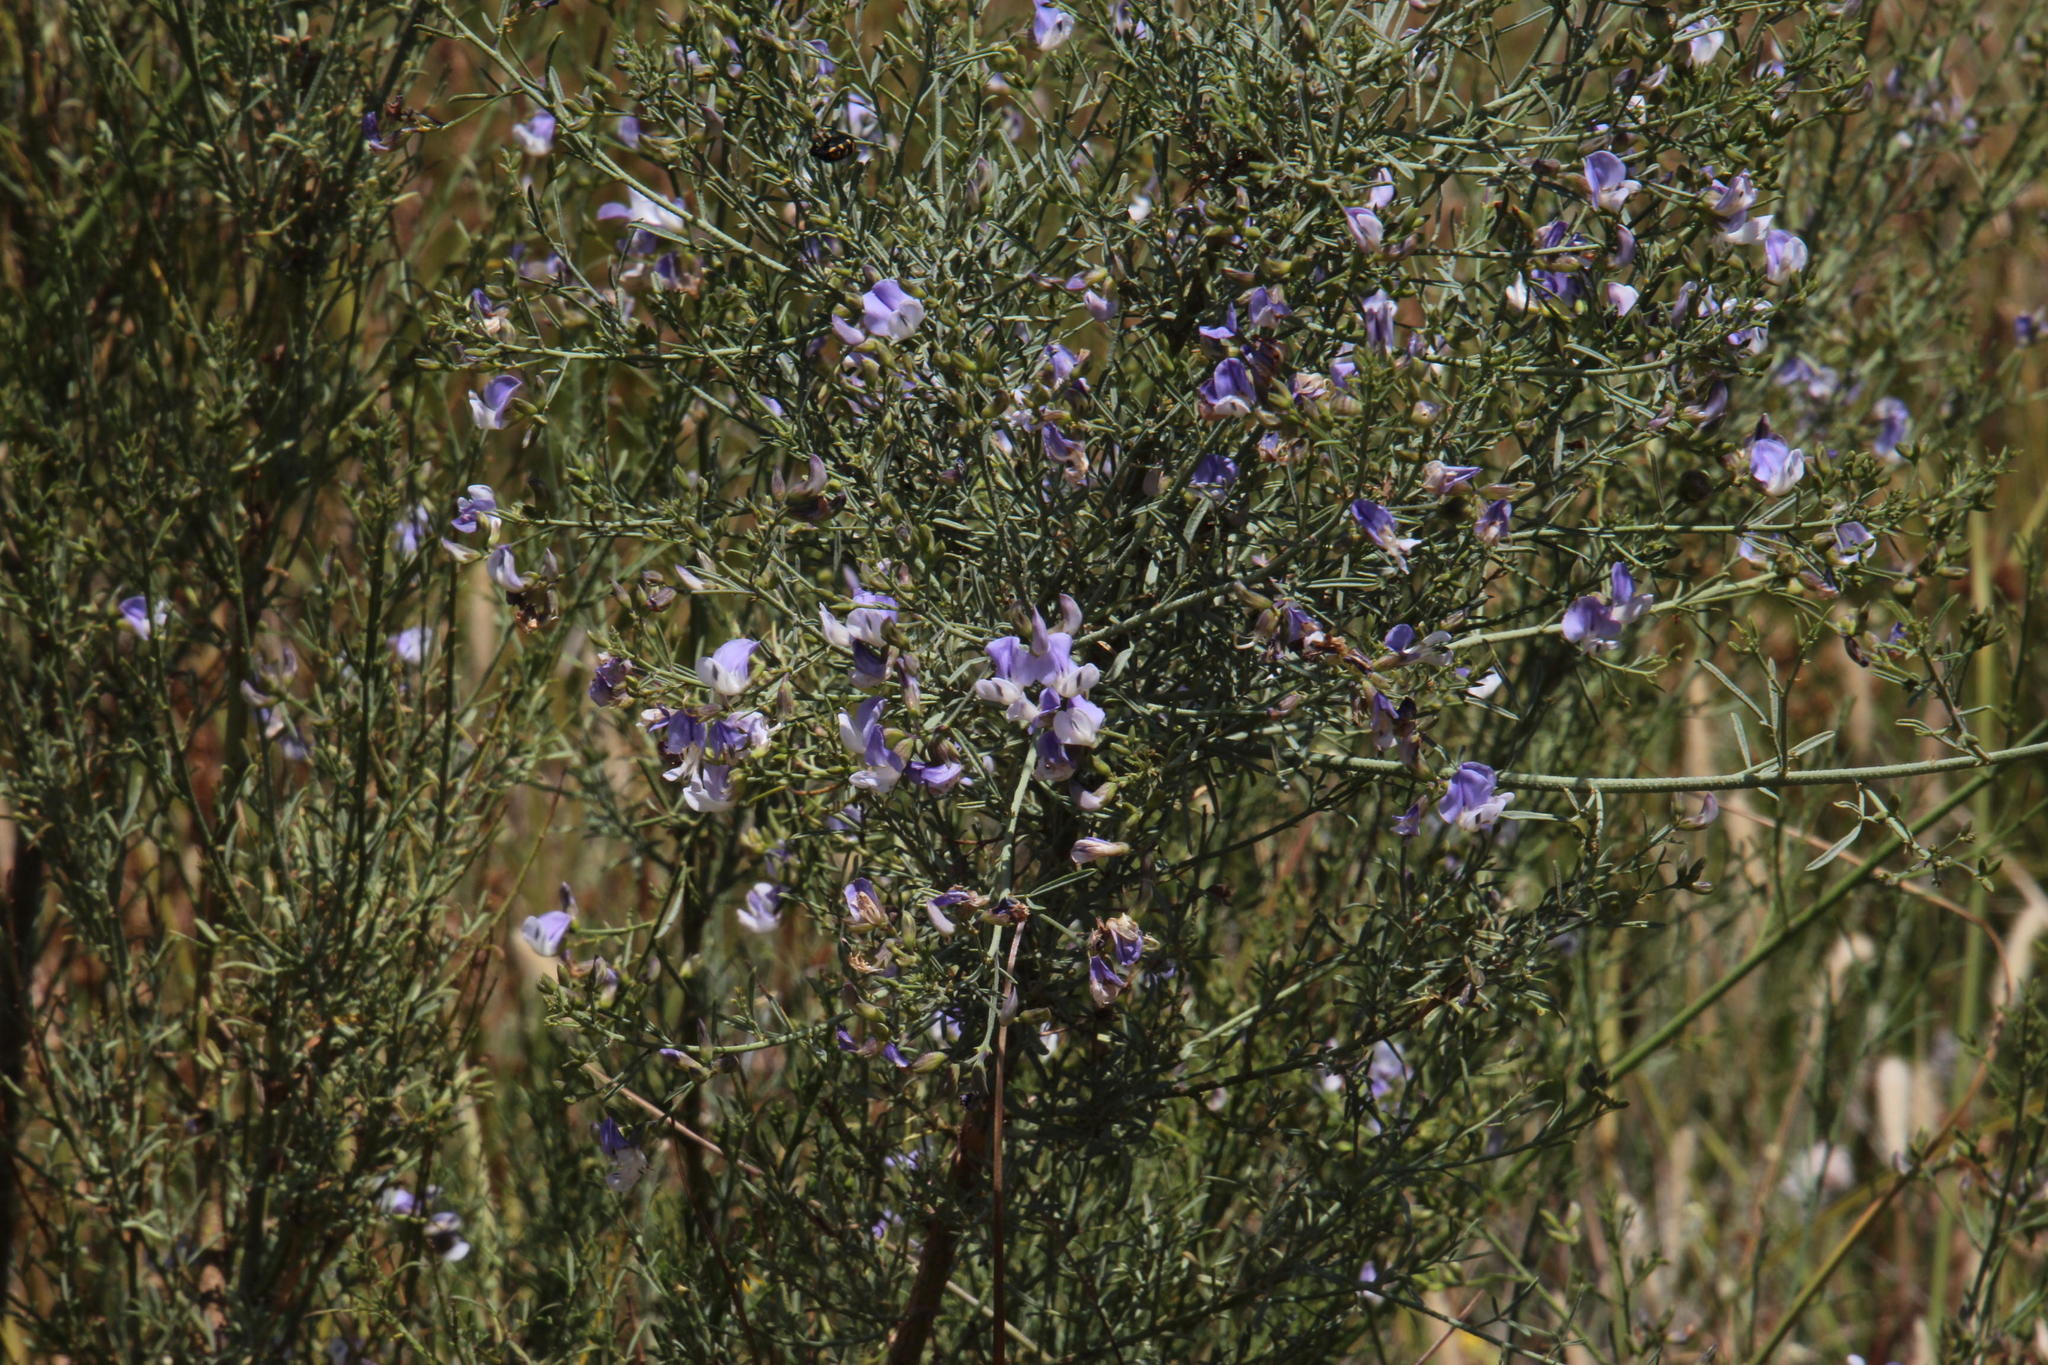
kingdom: Plantae
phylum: Tracheophyta
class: Magnoliopsida
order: Fabales
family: Fabaceae
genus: Psoralea
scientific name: Psoralea verrucosa
